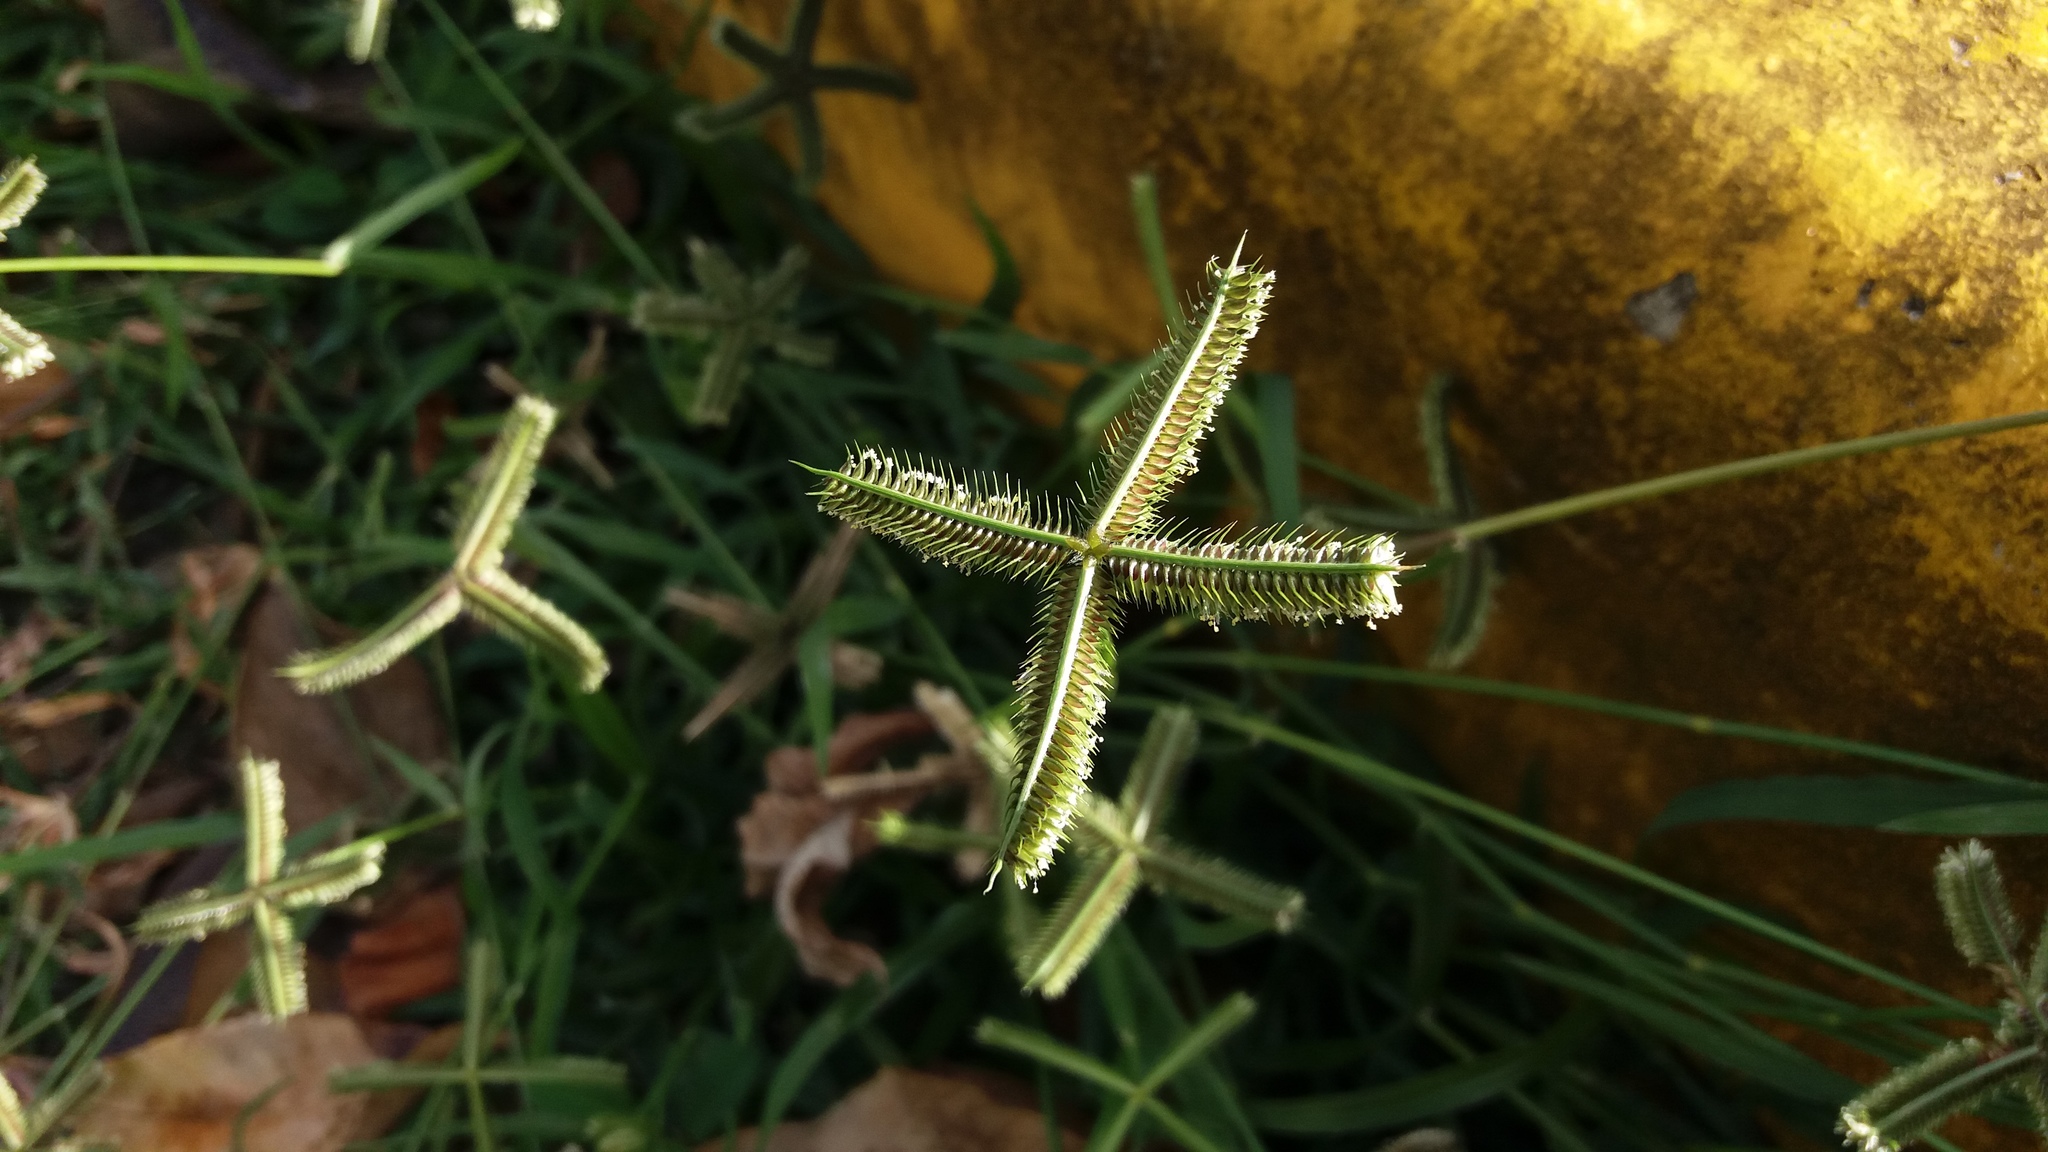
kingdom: Plantae
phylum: Tracheophyta
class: Liliopsida
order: Poales
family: Poaceae
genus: Dactyloctenium
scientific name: Dactyloctenium aegyptium
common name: Egyptian grass
